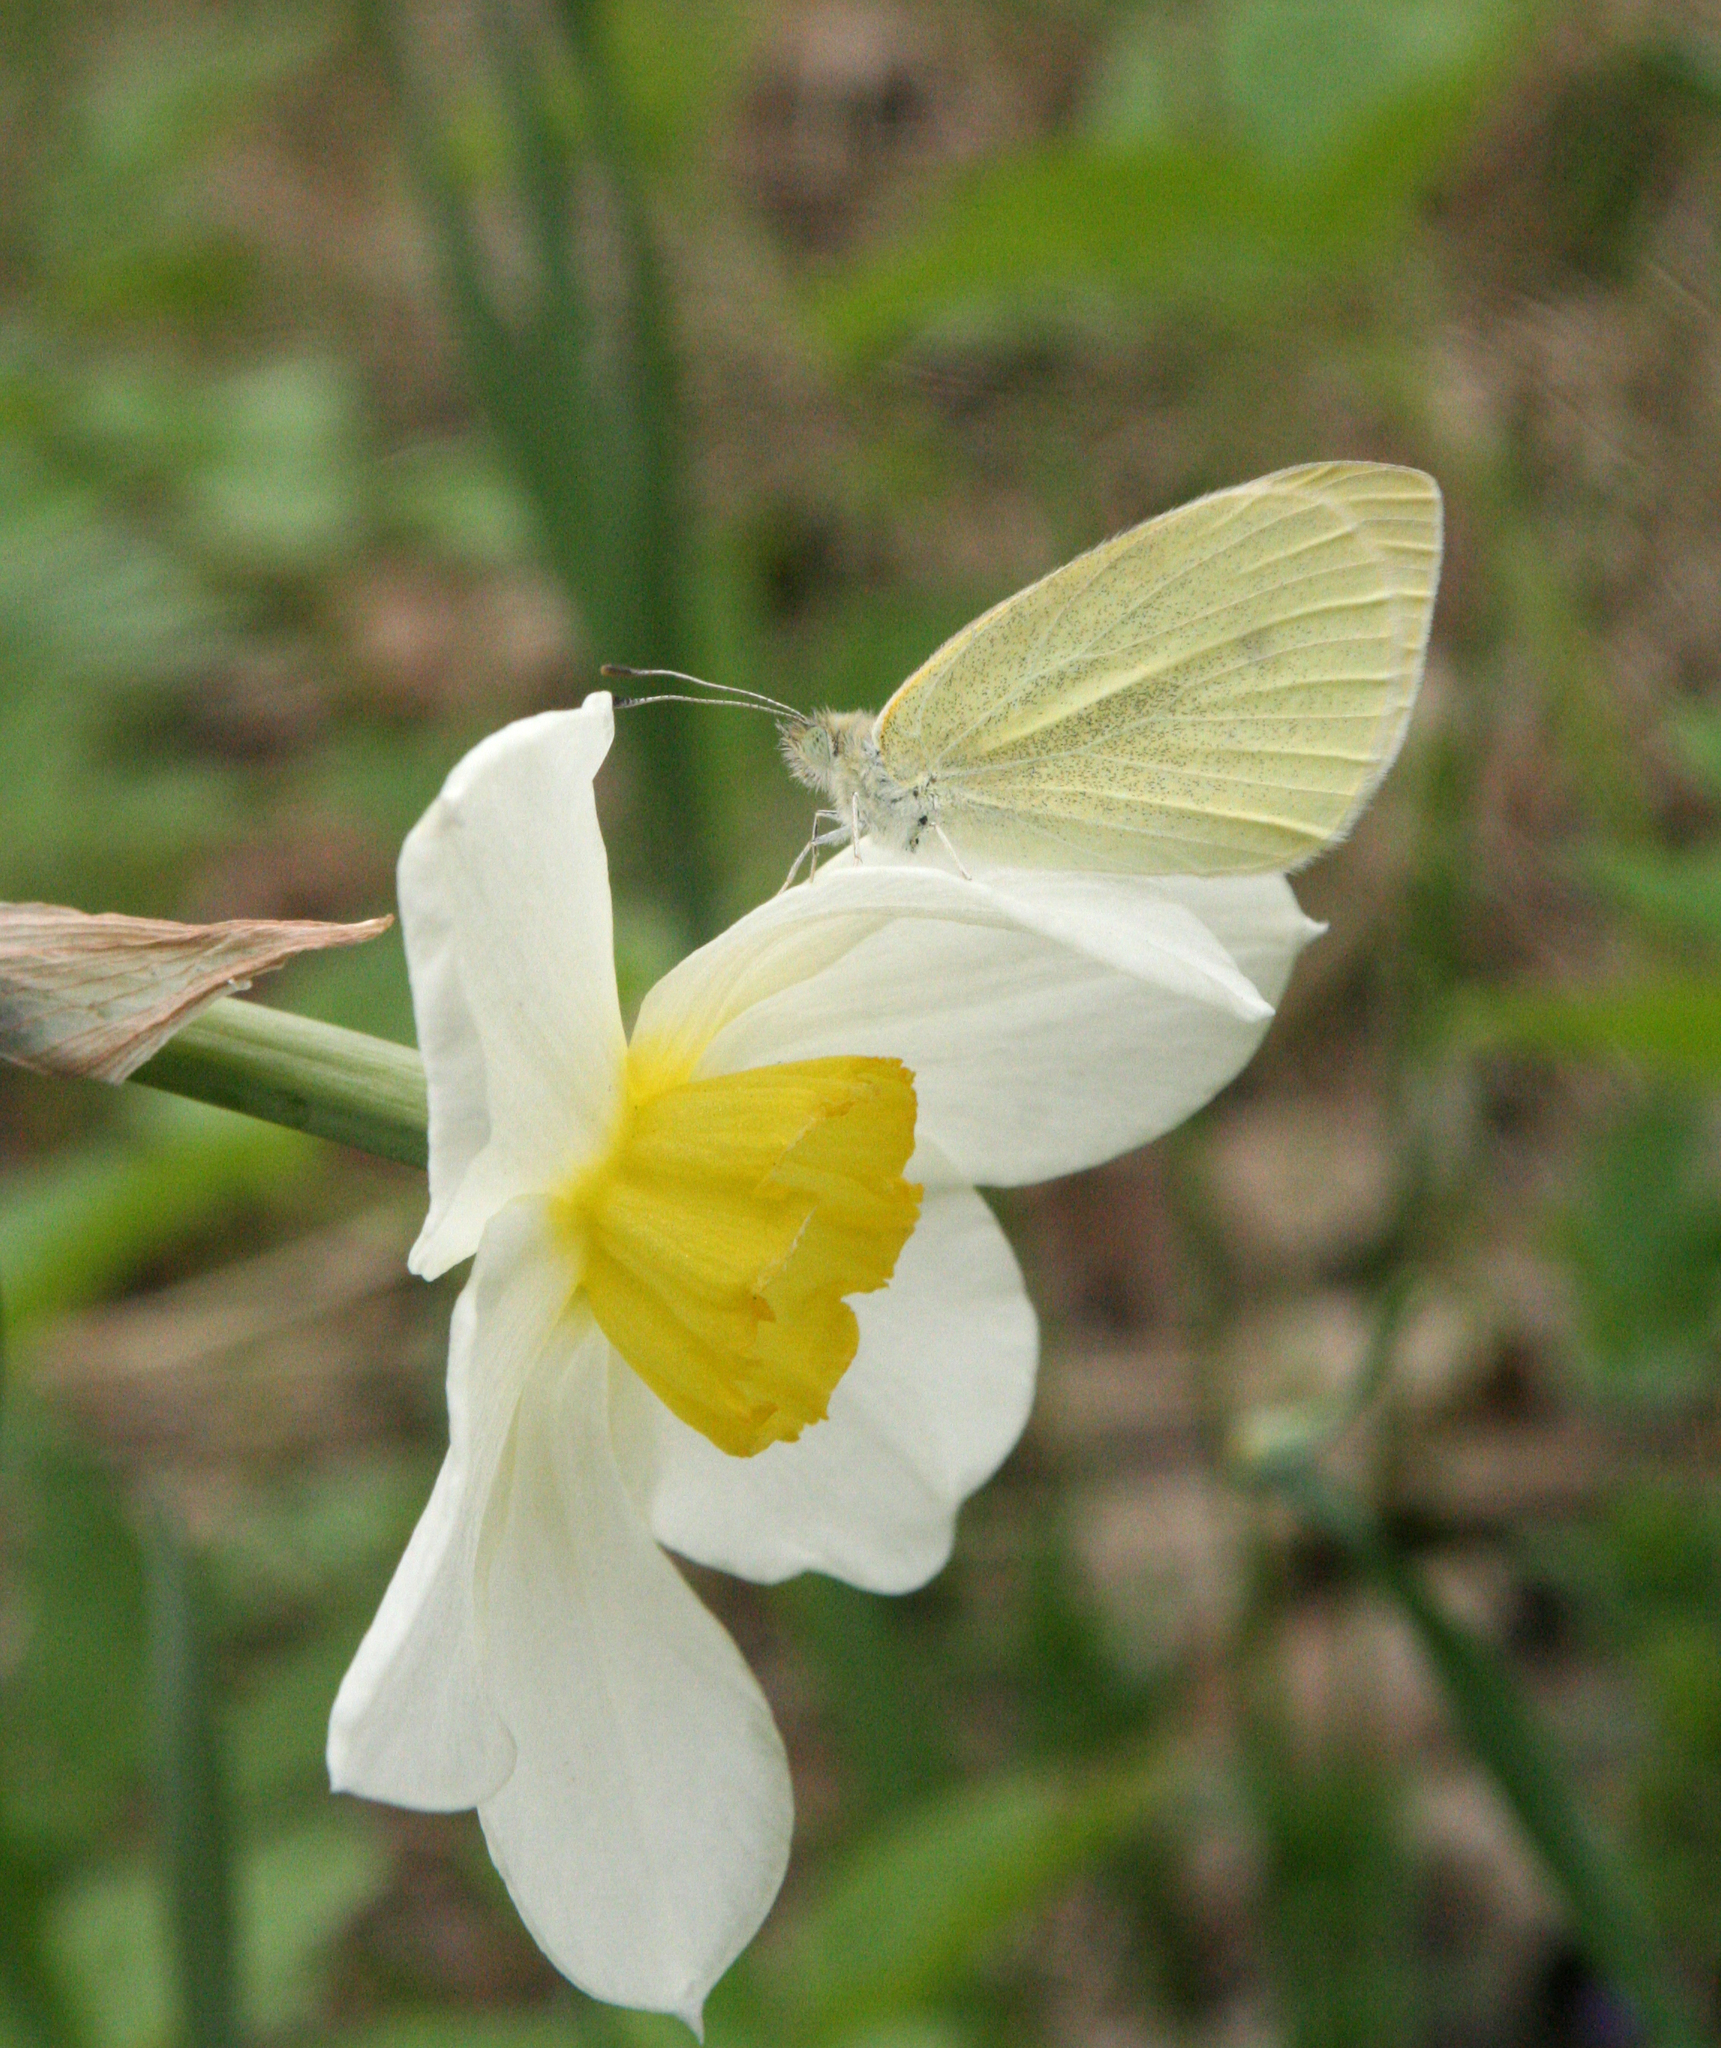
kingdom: Animalia
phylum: Arthropoda
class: Insecta
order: Lepidoptera
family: Pieridae
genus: Pieris
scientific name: Pieris rapae
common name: Small white
